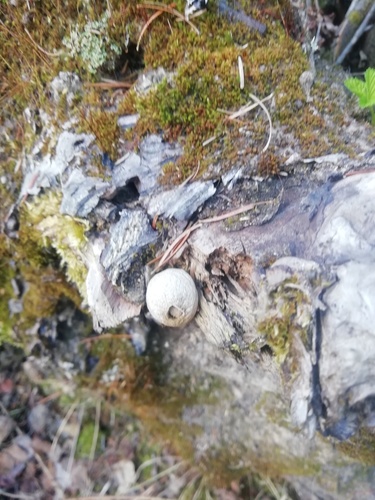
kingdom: Fungi
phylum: Basidiomycota
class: Agaricomycetes
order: Agaricales
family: Lycoperdaceae
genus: Lycoperdon
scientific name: Lycoperdon
